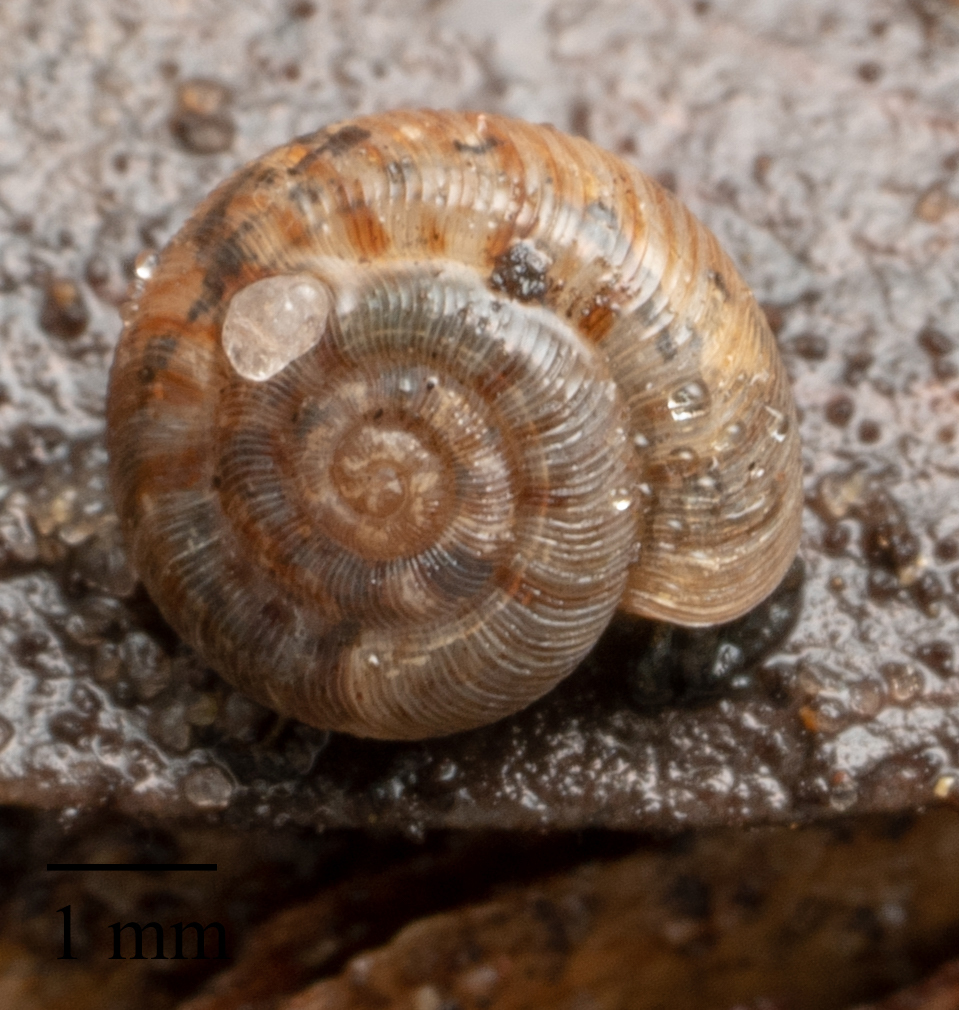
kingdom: Animalia
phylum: Mollusca
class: Gastropoda
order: Stylommatophora
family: Cystopeltidae
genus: Scelidoropa
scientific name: Scelidoropa officeri
